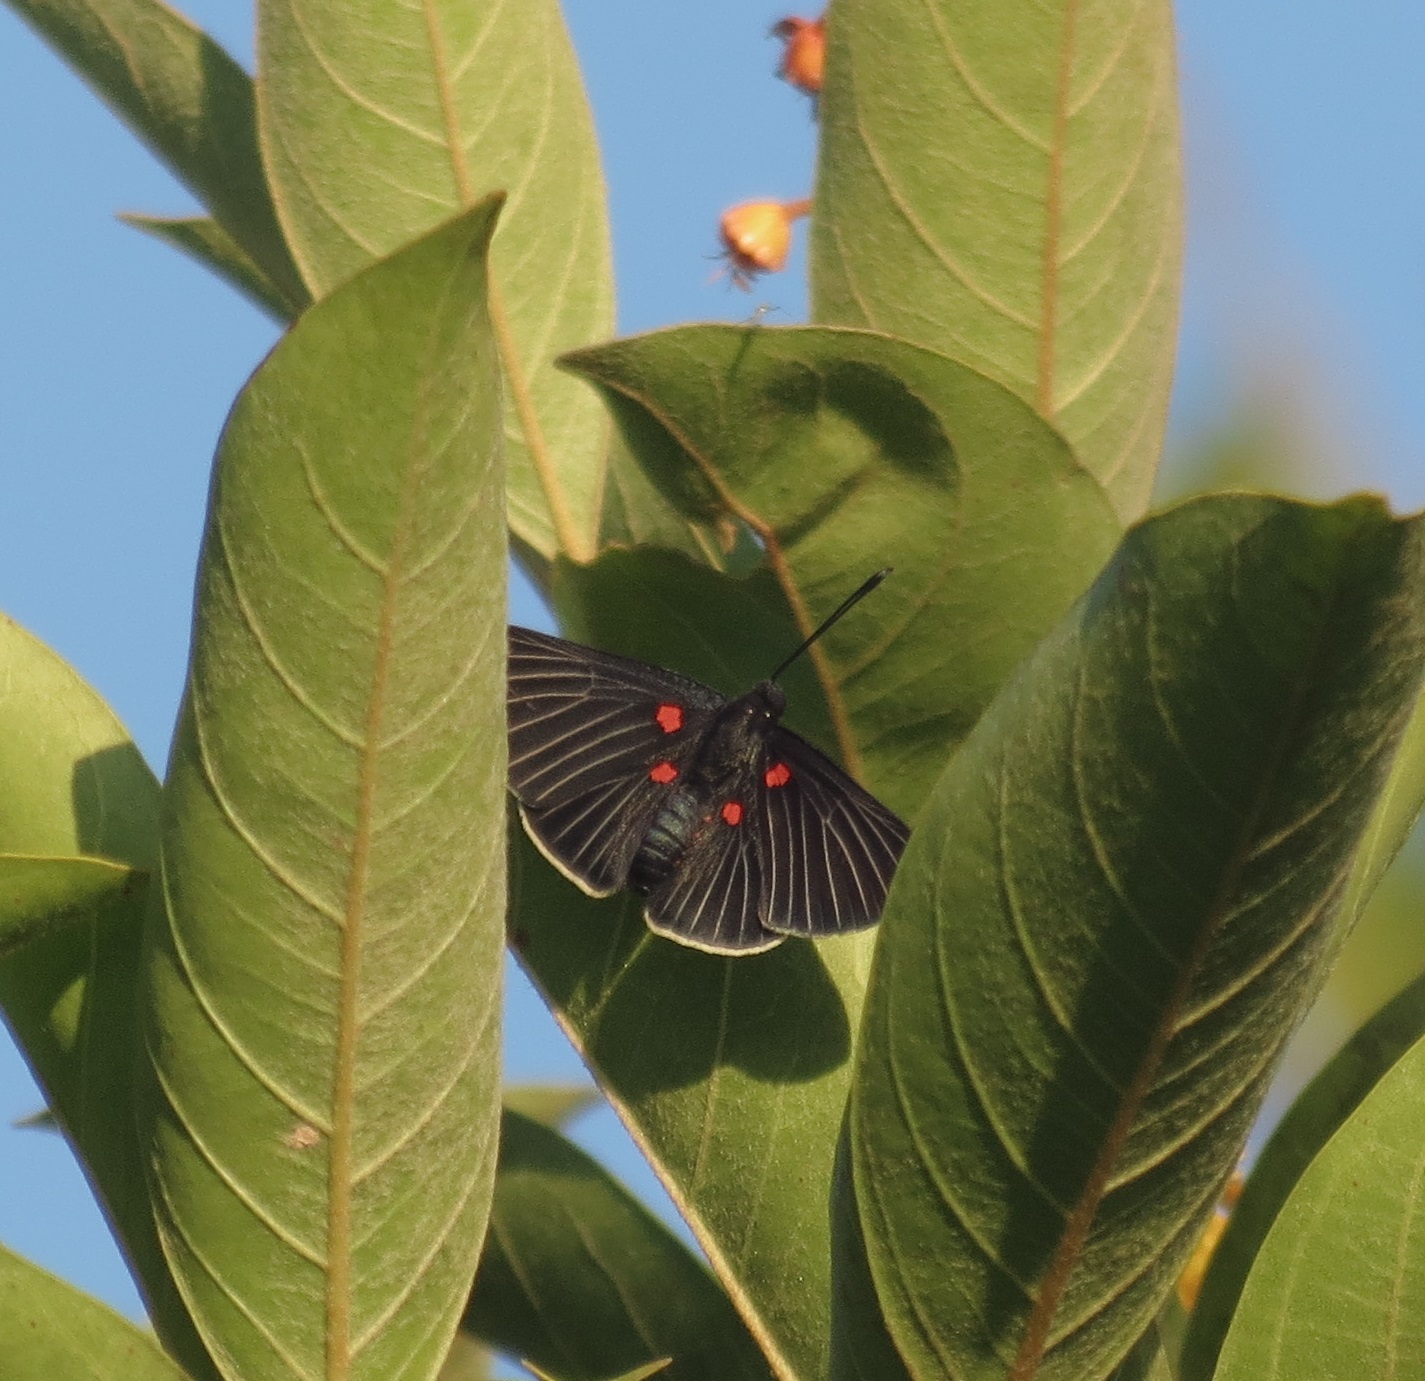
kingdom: Animalia
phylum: Arthropoda
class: Insecta
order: Lepidoptera
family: Lycaenidae
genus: Melanis
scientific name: Melanis
